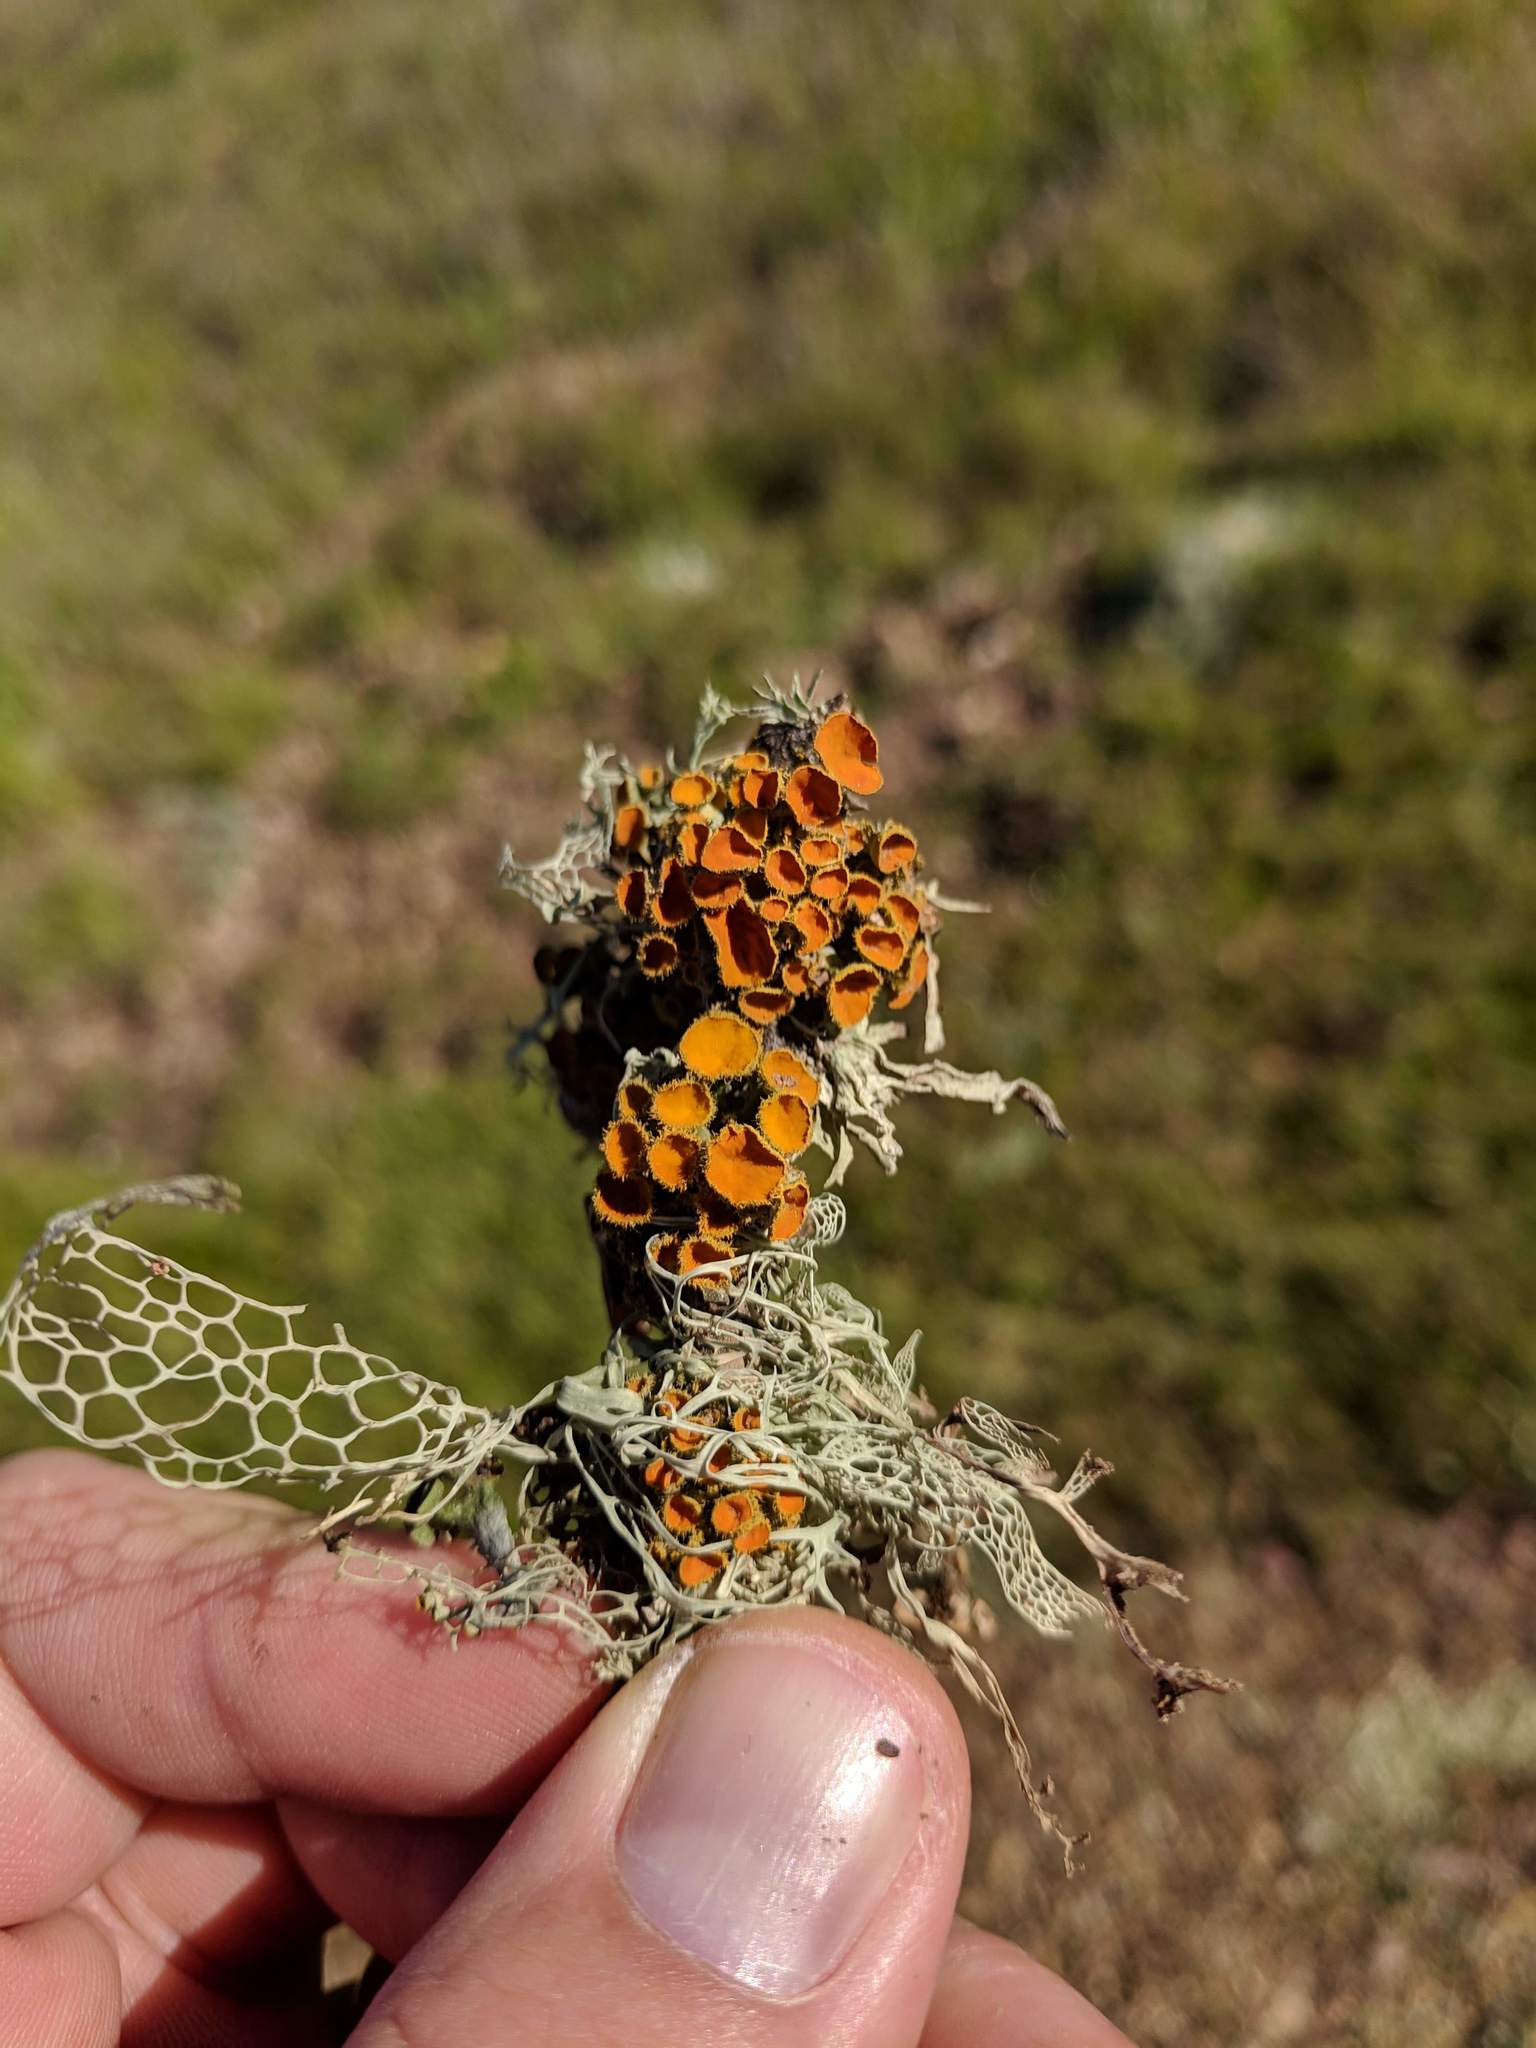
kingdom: Fungi
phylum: Ascomycota
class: Lecanoromycetes
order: Teloschistales
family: Teloschistaceae
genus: Niorma
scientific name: Niorma chrysophthalma
